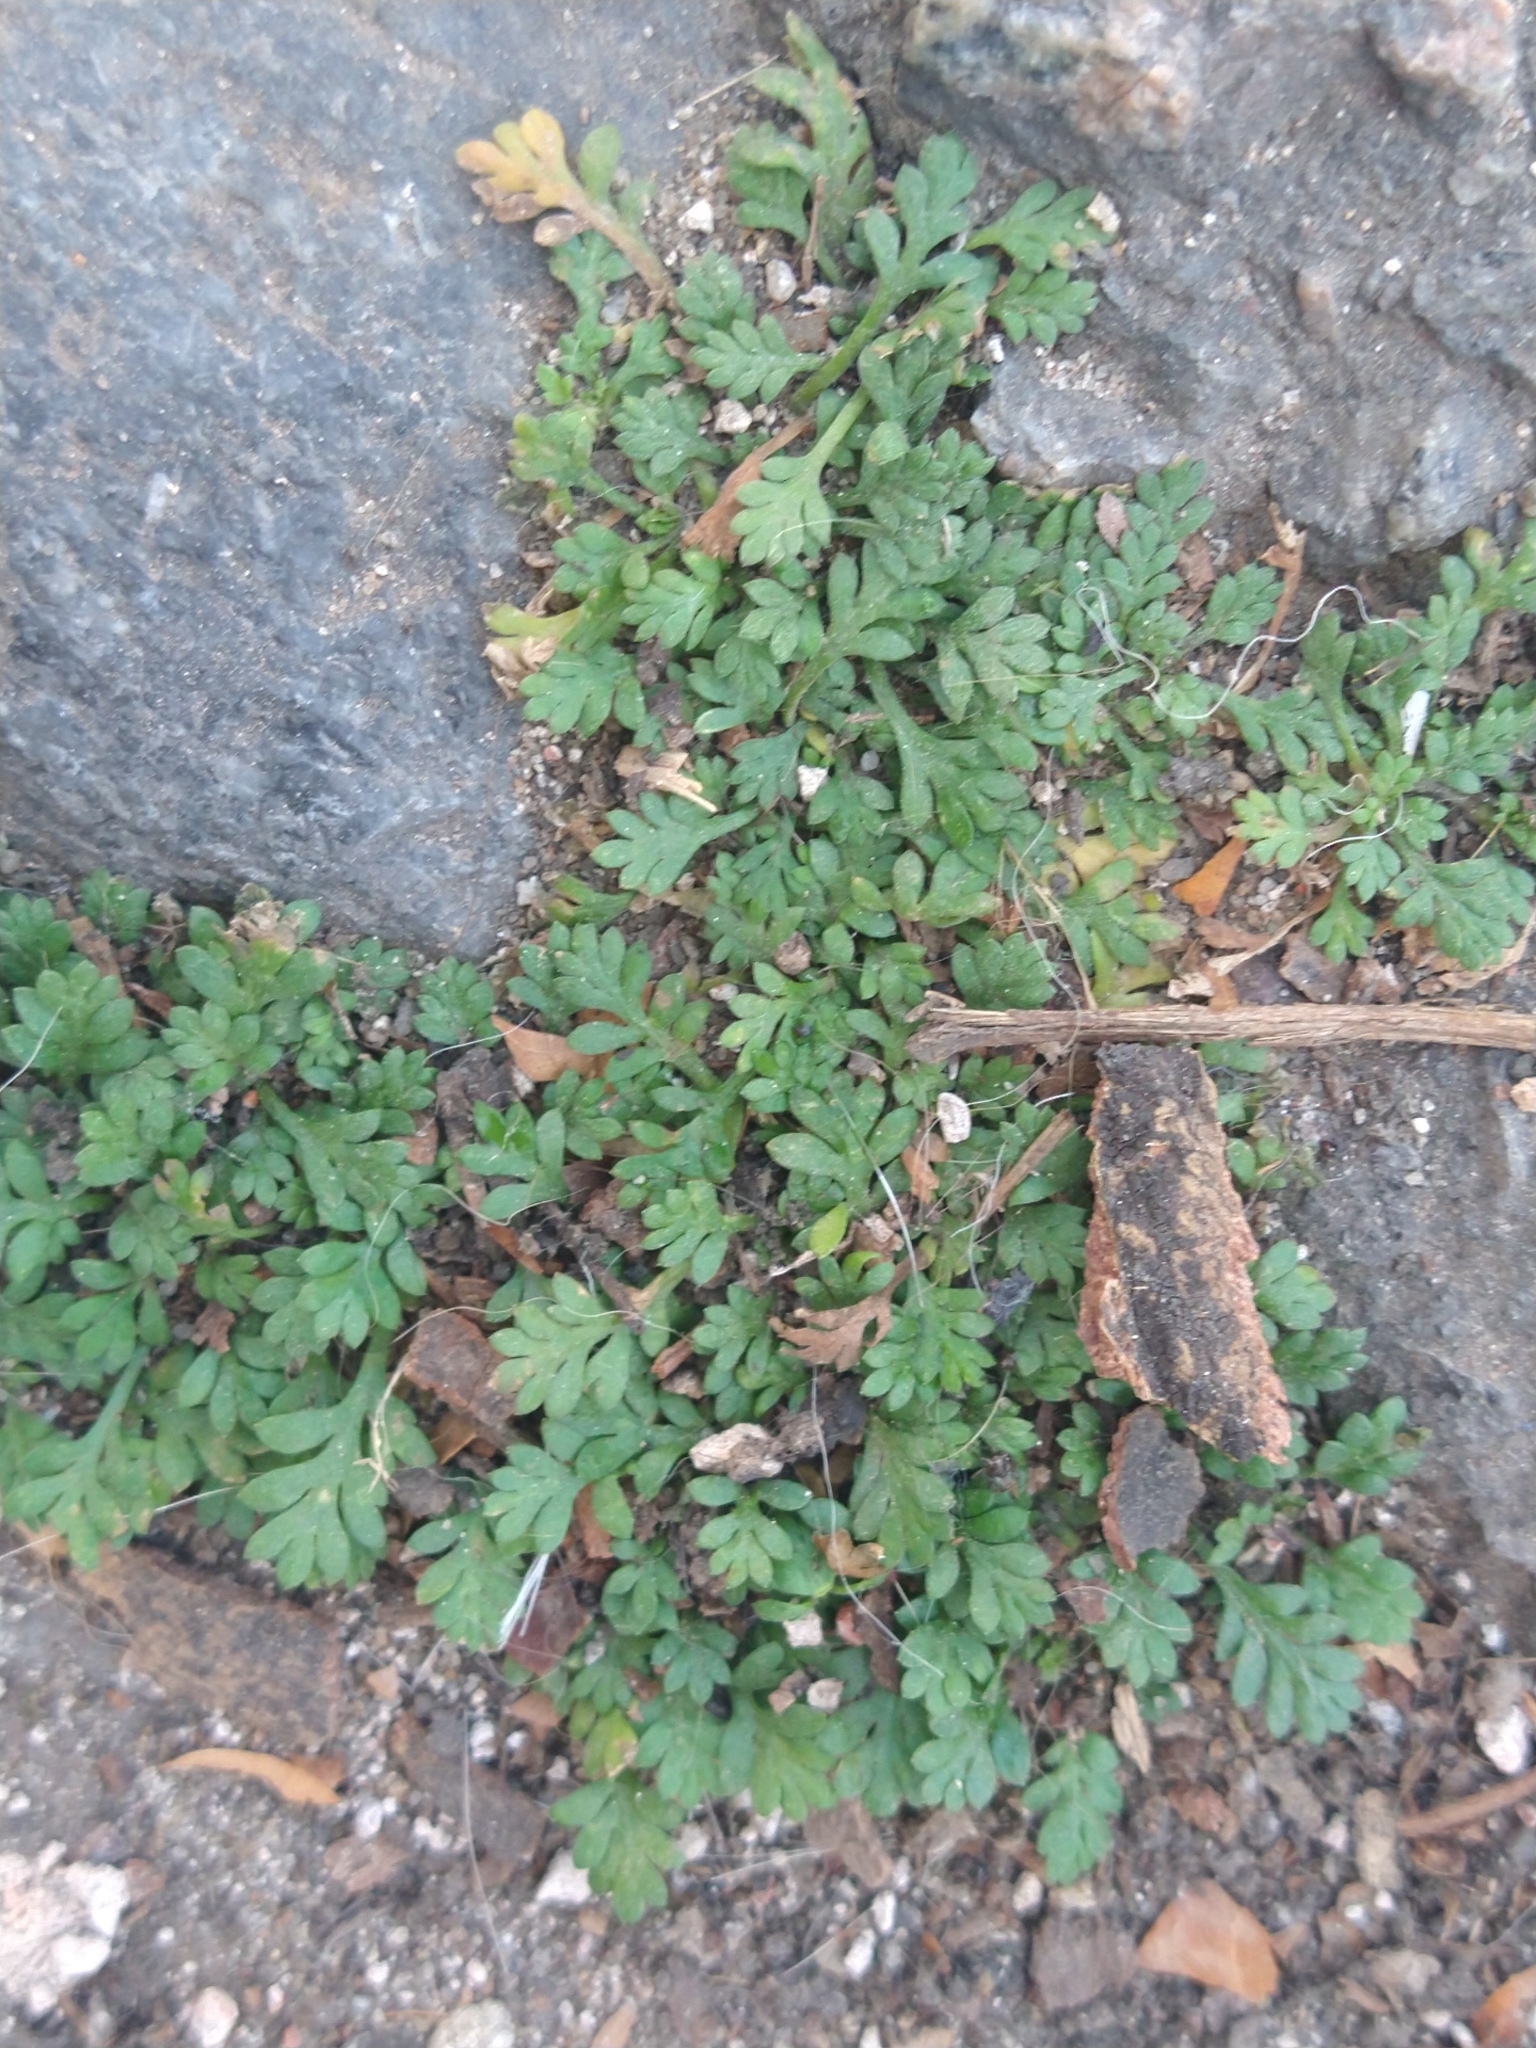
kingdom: Plantae
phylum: Tracheophyta
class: Magnoliopsida
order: Asterales
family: Asteraceae
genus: Cotula
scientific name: Cotula australis
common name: Australian waterbuttons
